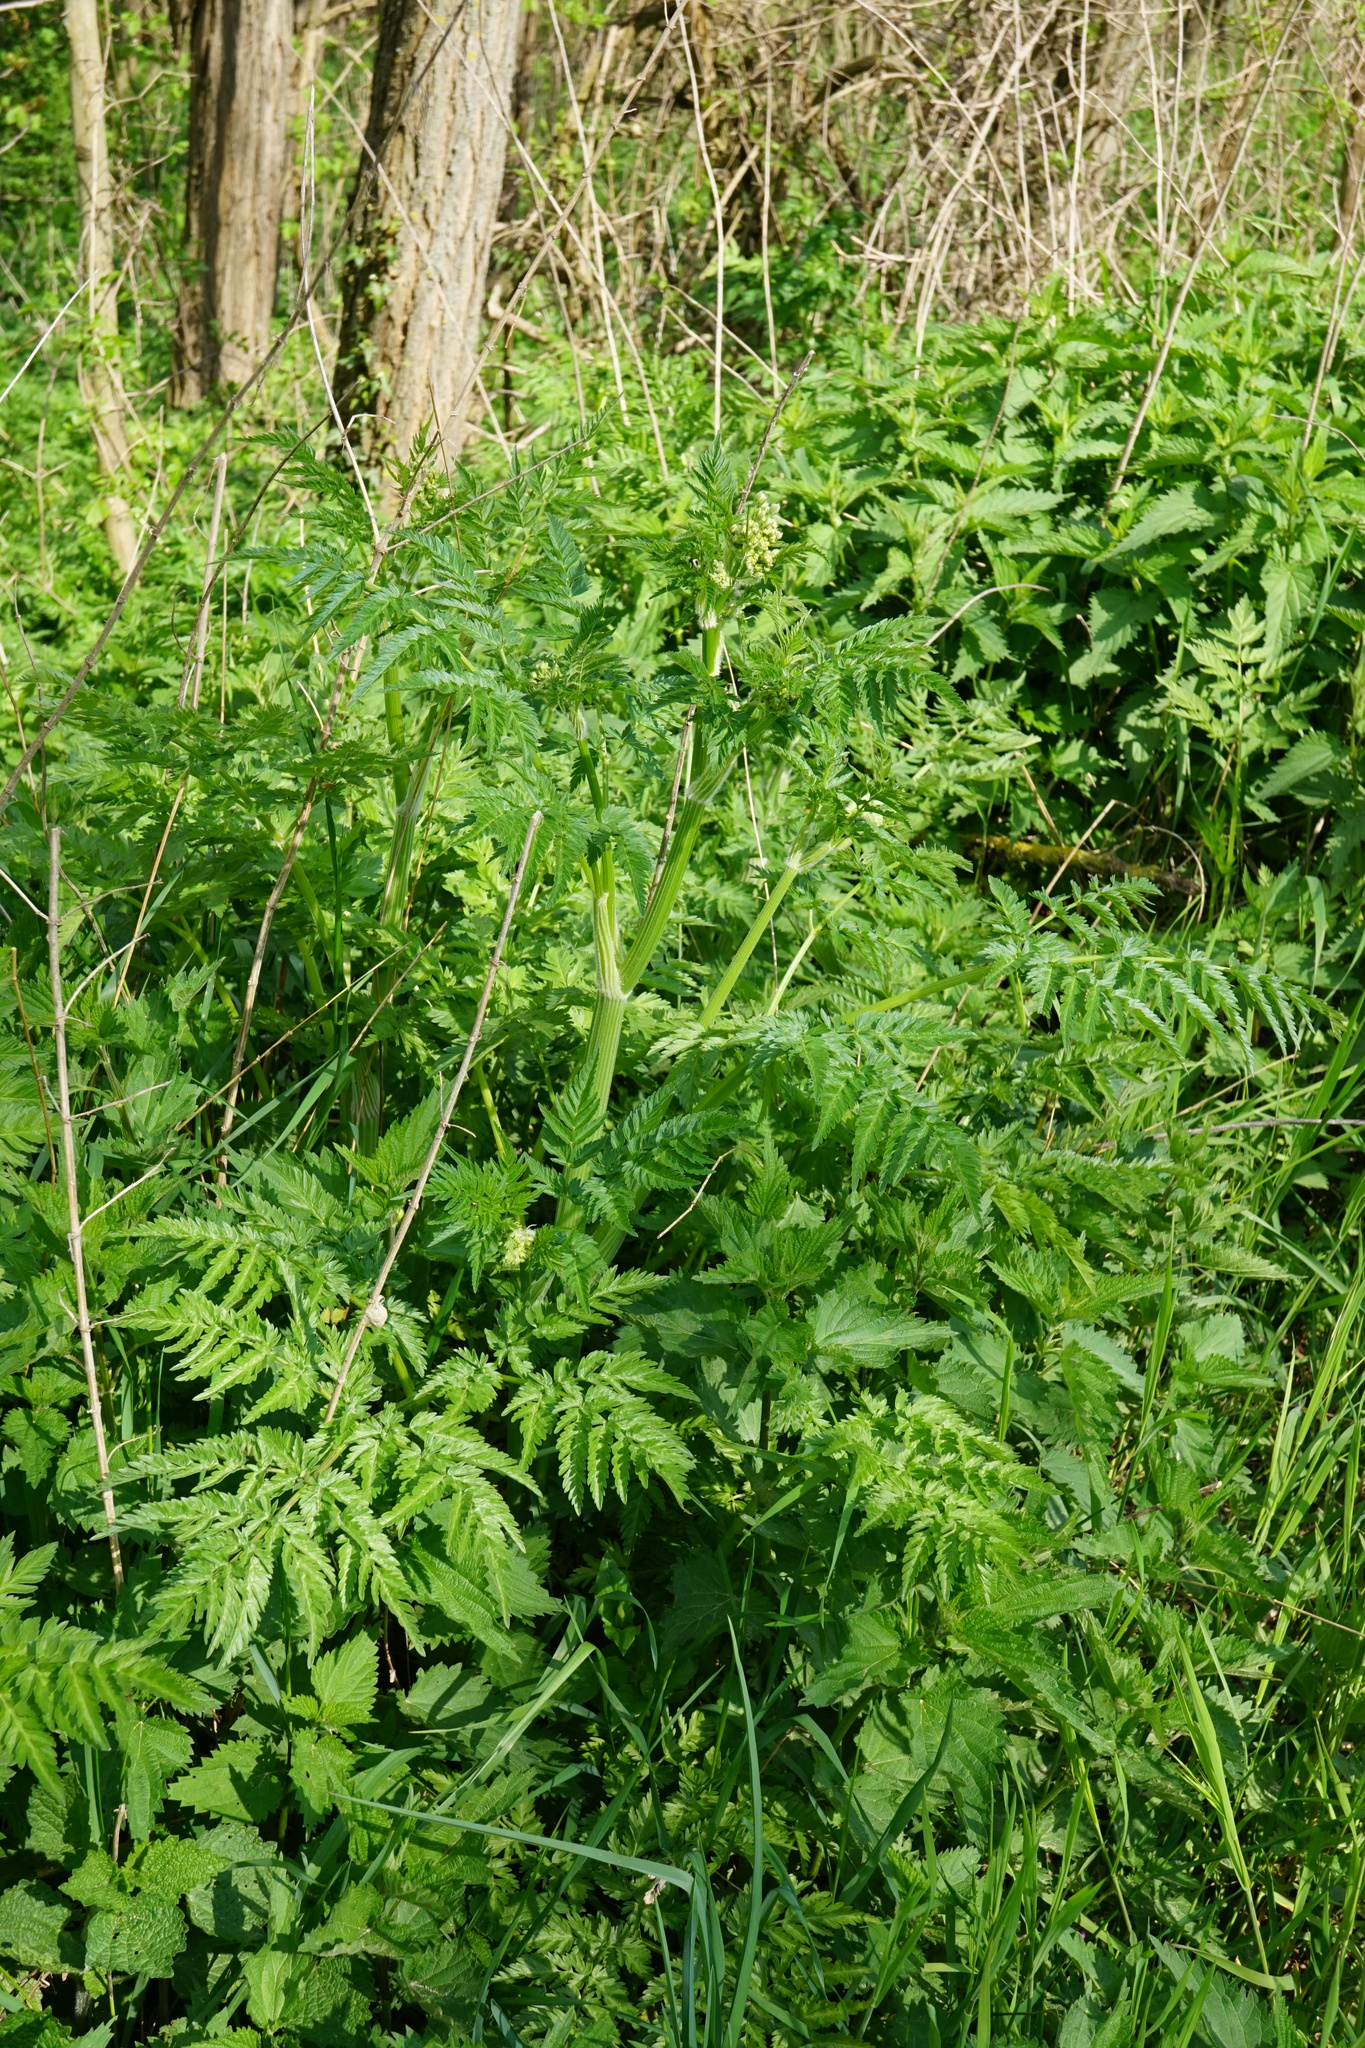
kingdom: Plantae
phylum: Tracheophyta
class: Magnoliopsida
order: Apiales
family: Apiaceae
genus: Anthriscus
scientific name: Anthriscus sylvestris
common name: Cow parsley
